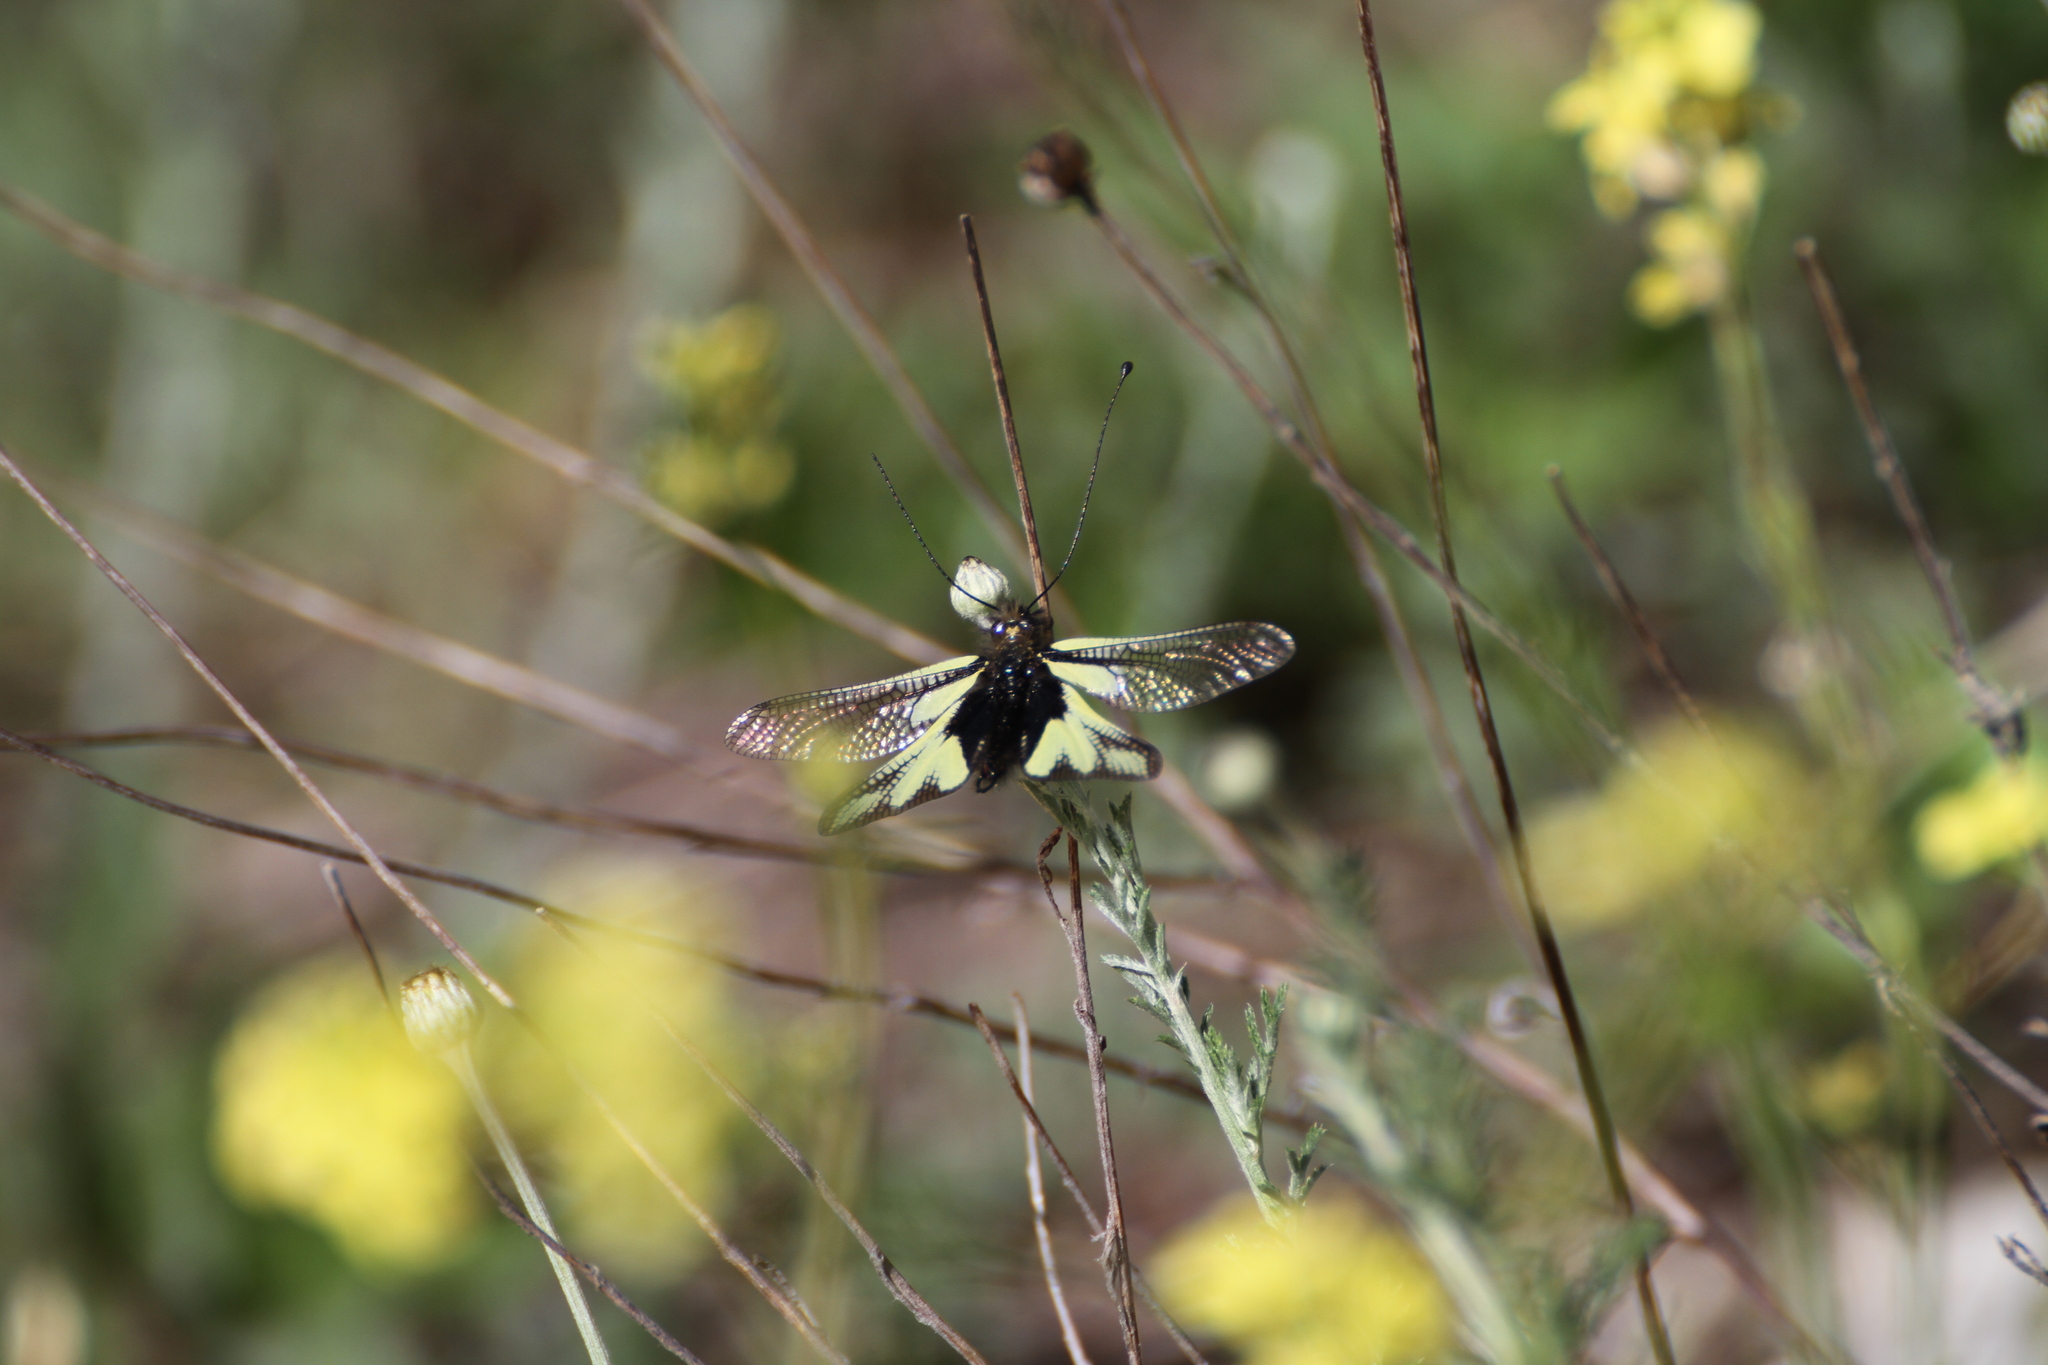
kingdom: Animalia
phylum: Arthropoda
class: Insecta
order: Neuroptera
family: Ascalaphidae
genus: Libelloides
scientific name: Libelloides coccajus
